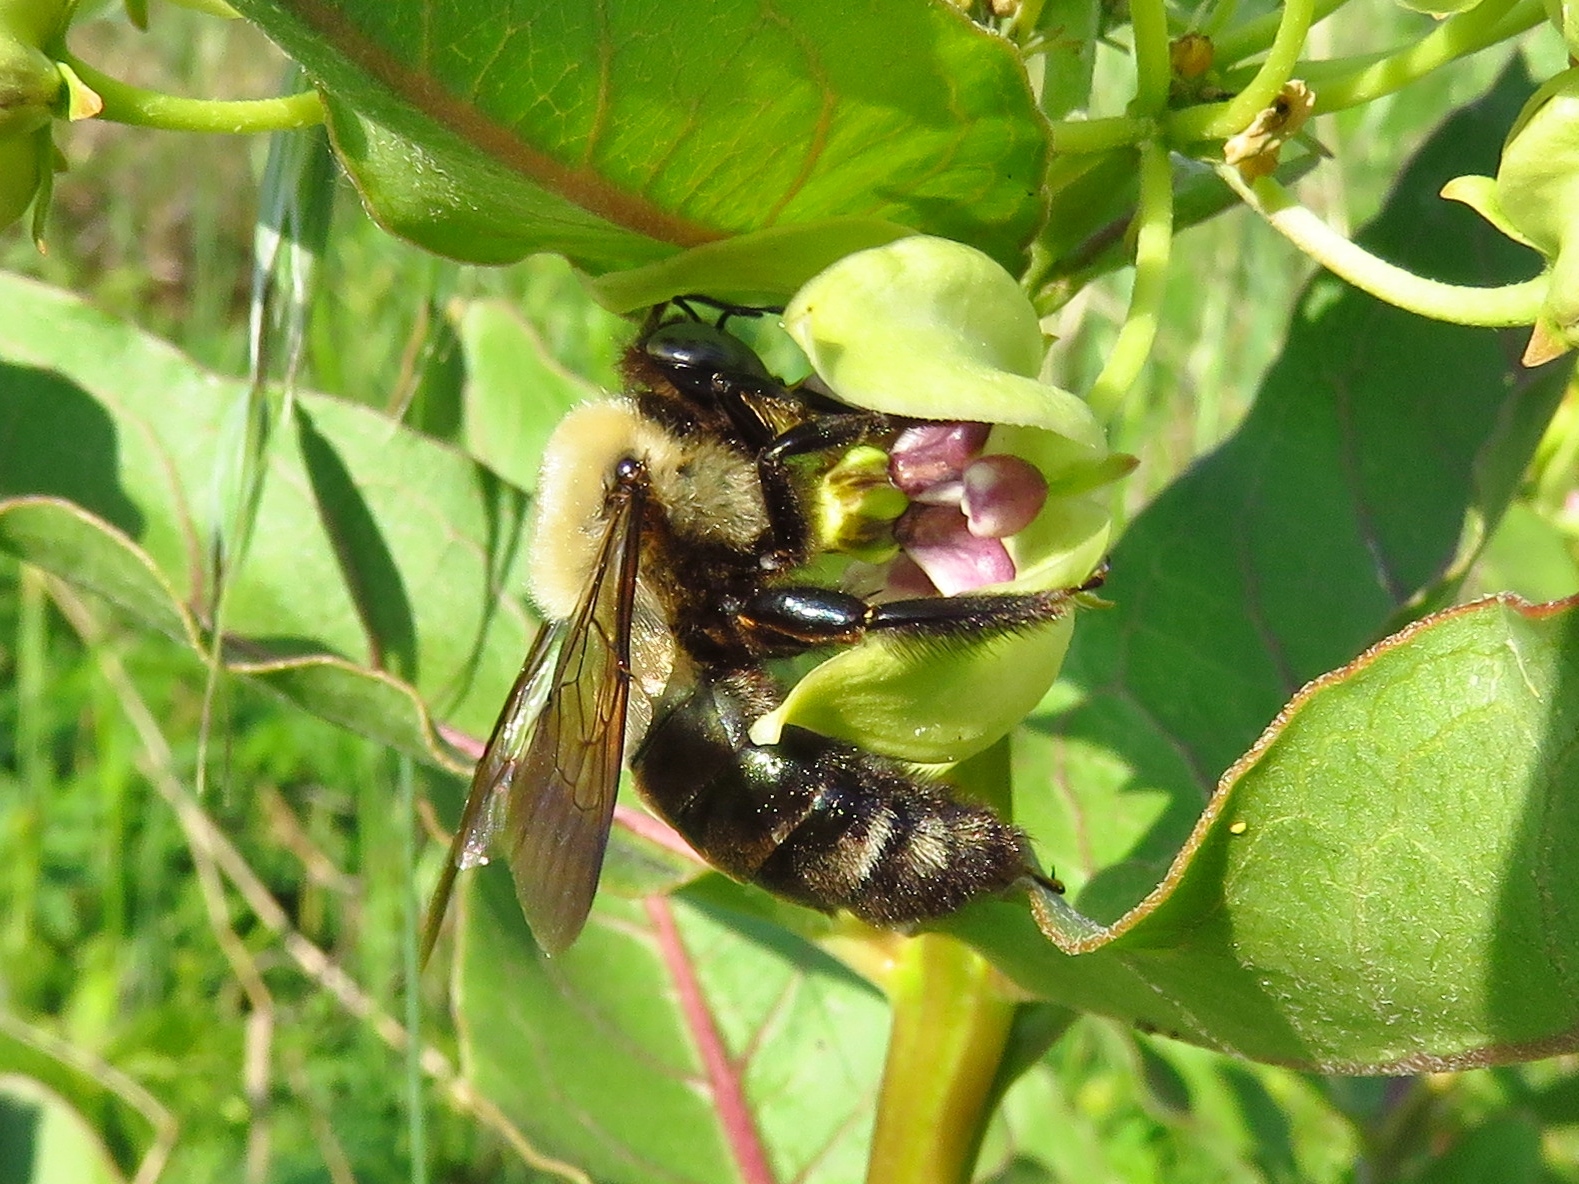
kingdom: Animalia
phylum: Arthropoda
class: Insecta
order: Hymenoptera
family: Apidae
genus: Xylocopa
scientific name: Xylocopa virginica
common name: Carpenter bee
